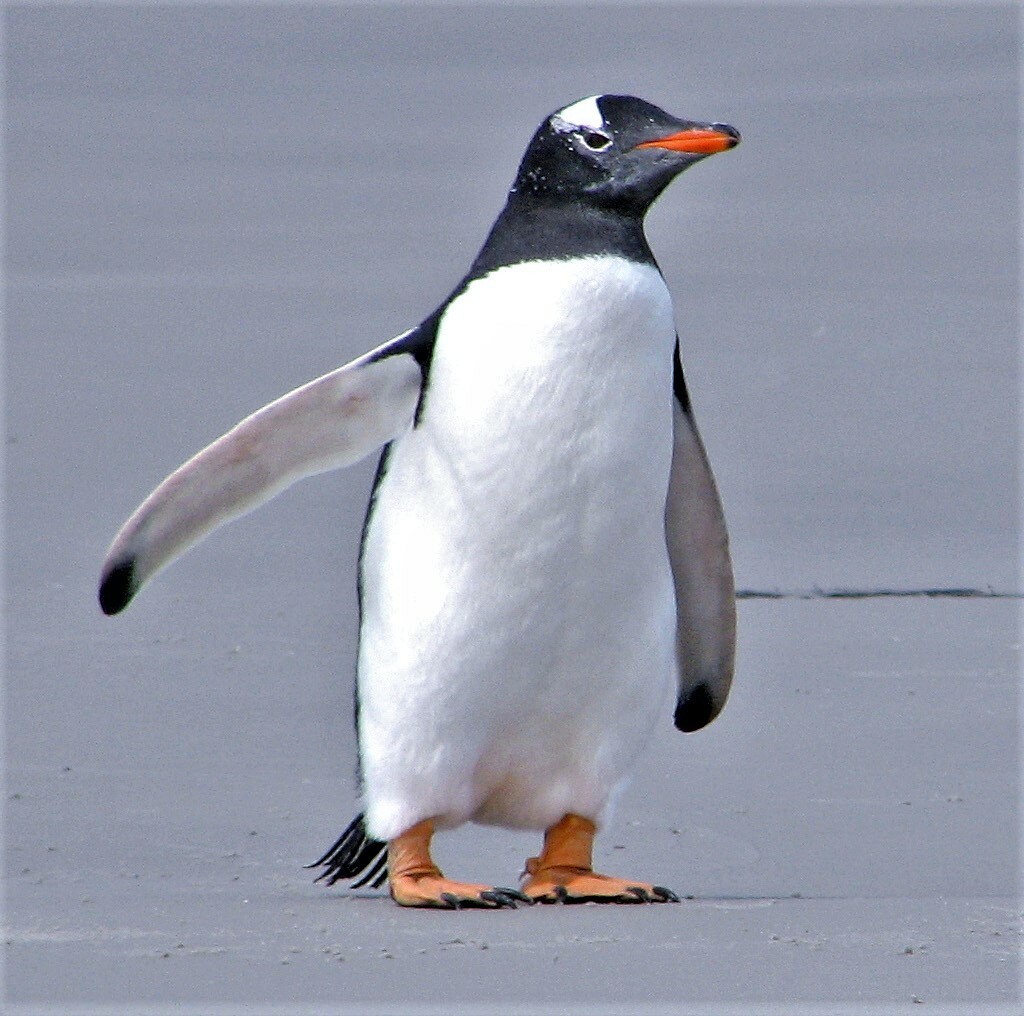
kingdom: Animalia
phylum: Chordata
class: Aves
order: Sphenisciformes
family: Spheniscidae
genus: Pygoscelis
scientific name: Pygoscelis papua
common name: Gentoo penguin
